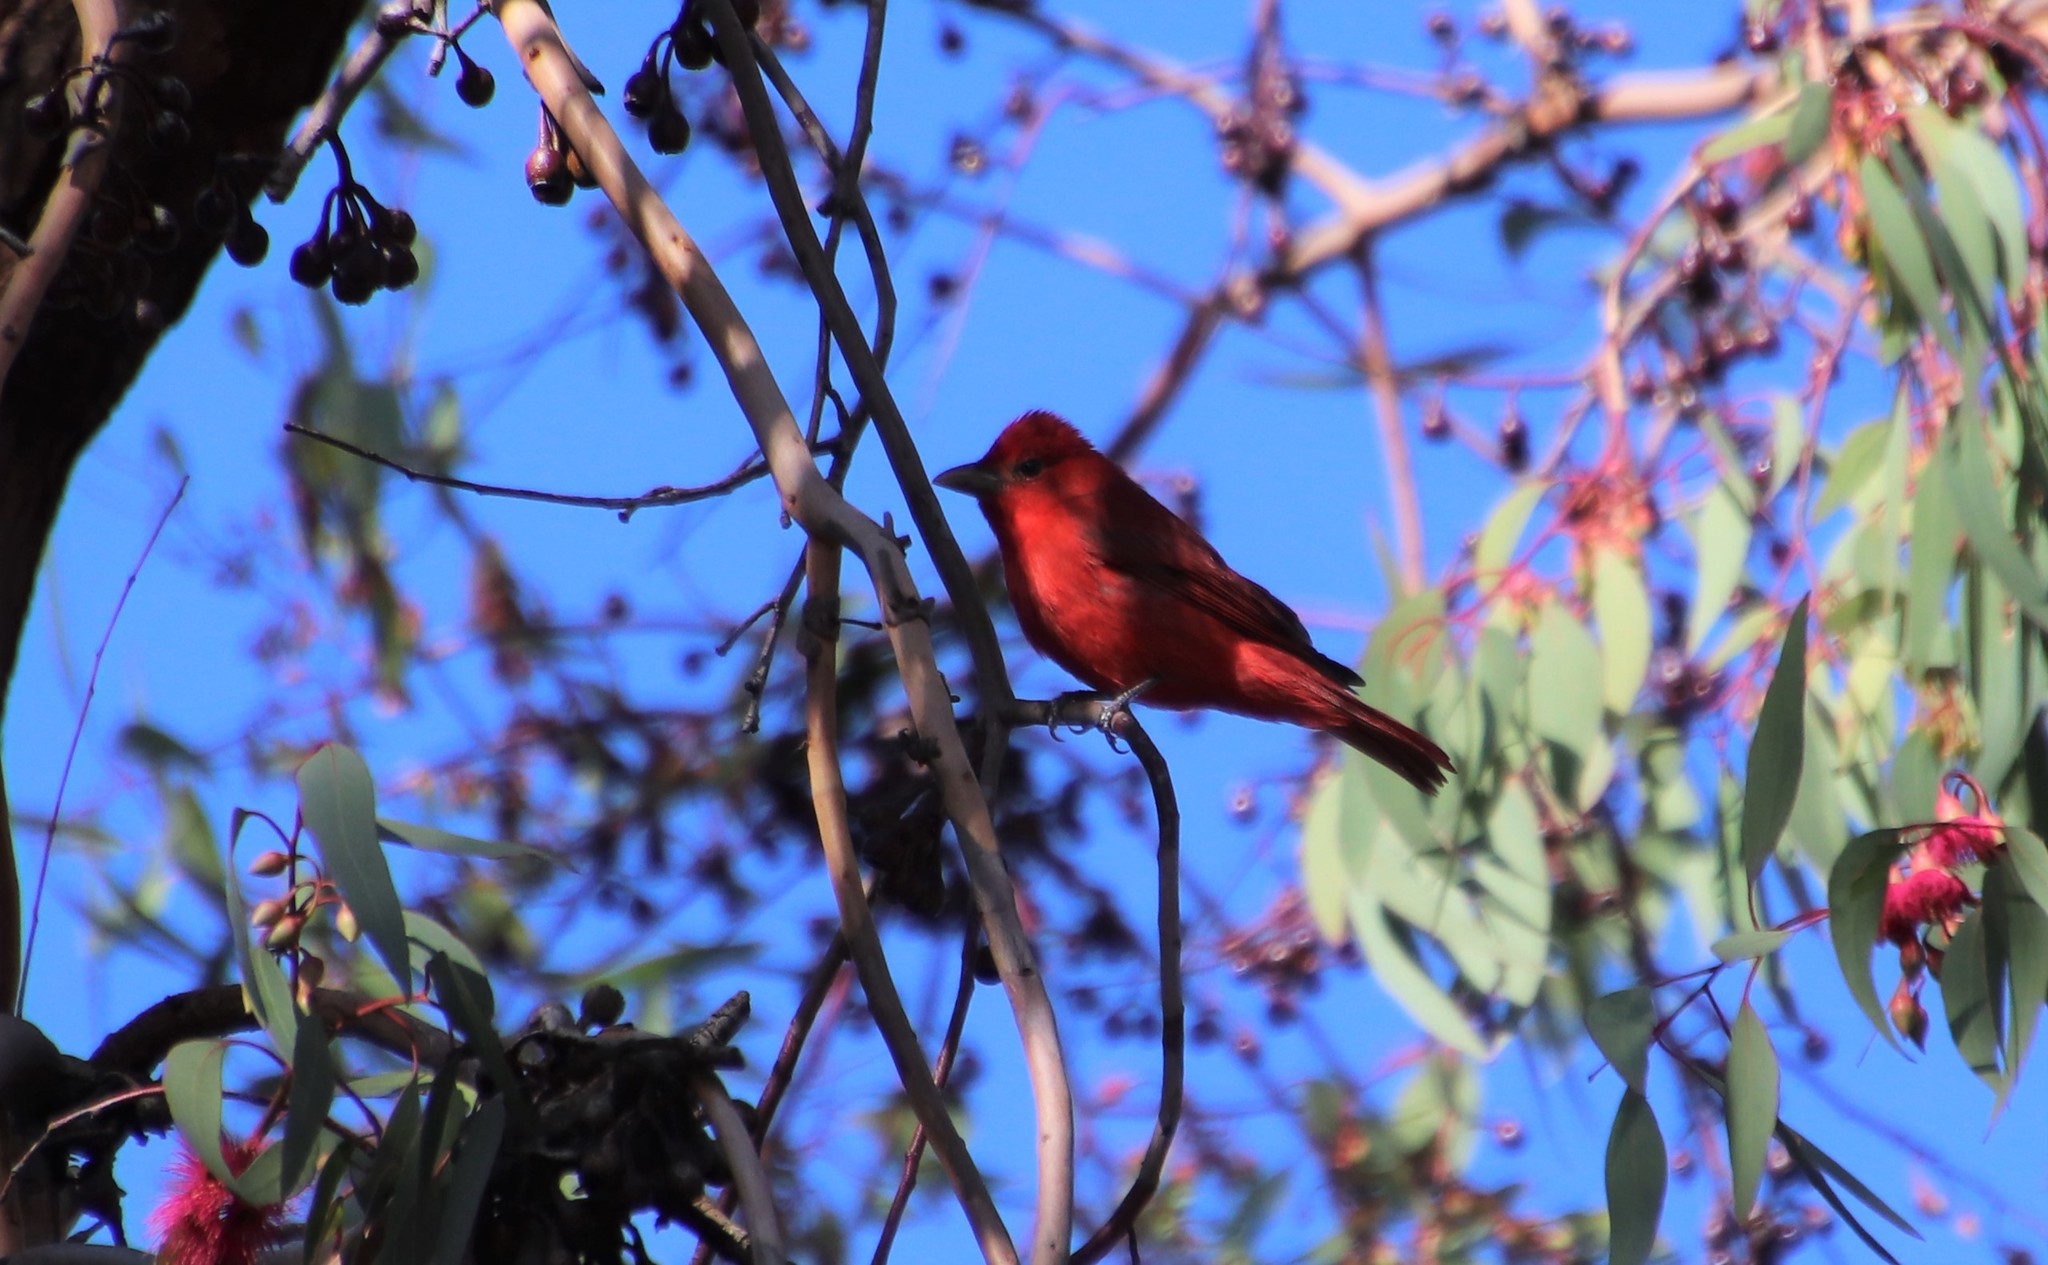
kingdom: Animalia
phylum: Chordata
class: Aves
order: Passeriformes
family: Cardinalidae
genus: Piranga
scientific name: Piranga rubra
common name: Summer tanager
